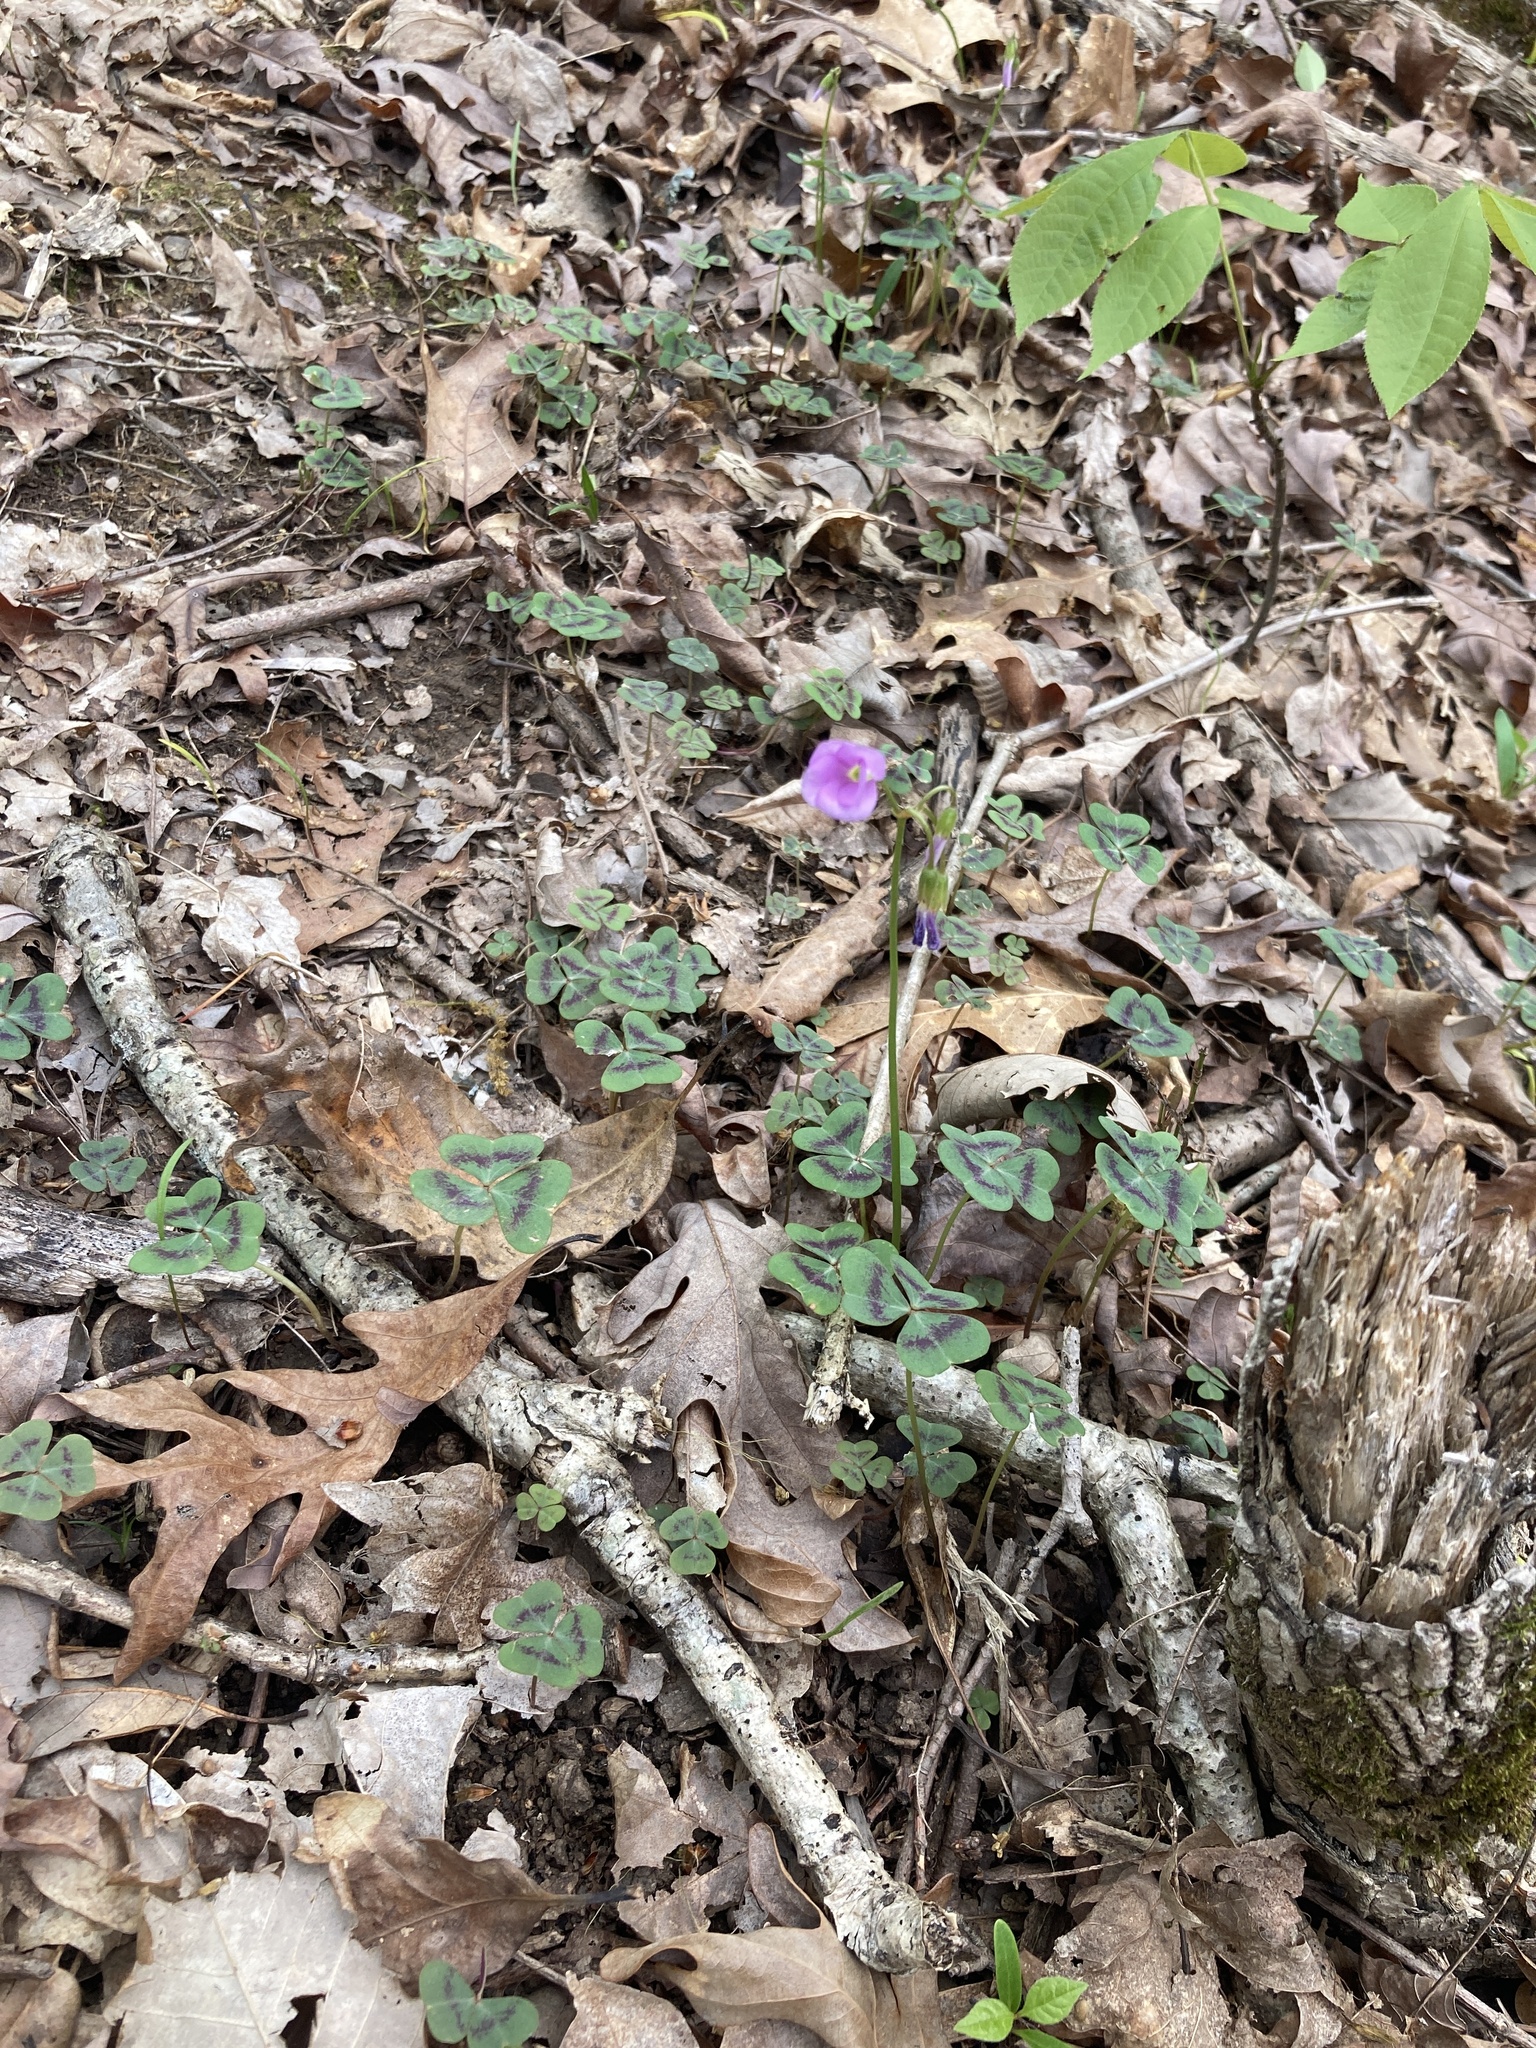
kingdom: Plantae
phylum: Tracheophyta
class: Magnoliopsida
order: Oxalidales
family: Oxalidaceae
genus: Oxalis
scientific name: Oxalis violacea
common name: Violet wood-sorrel
